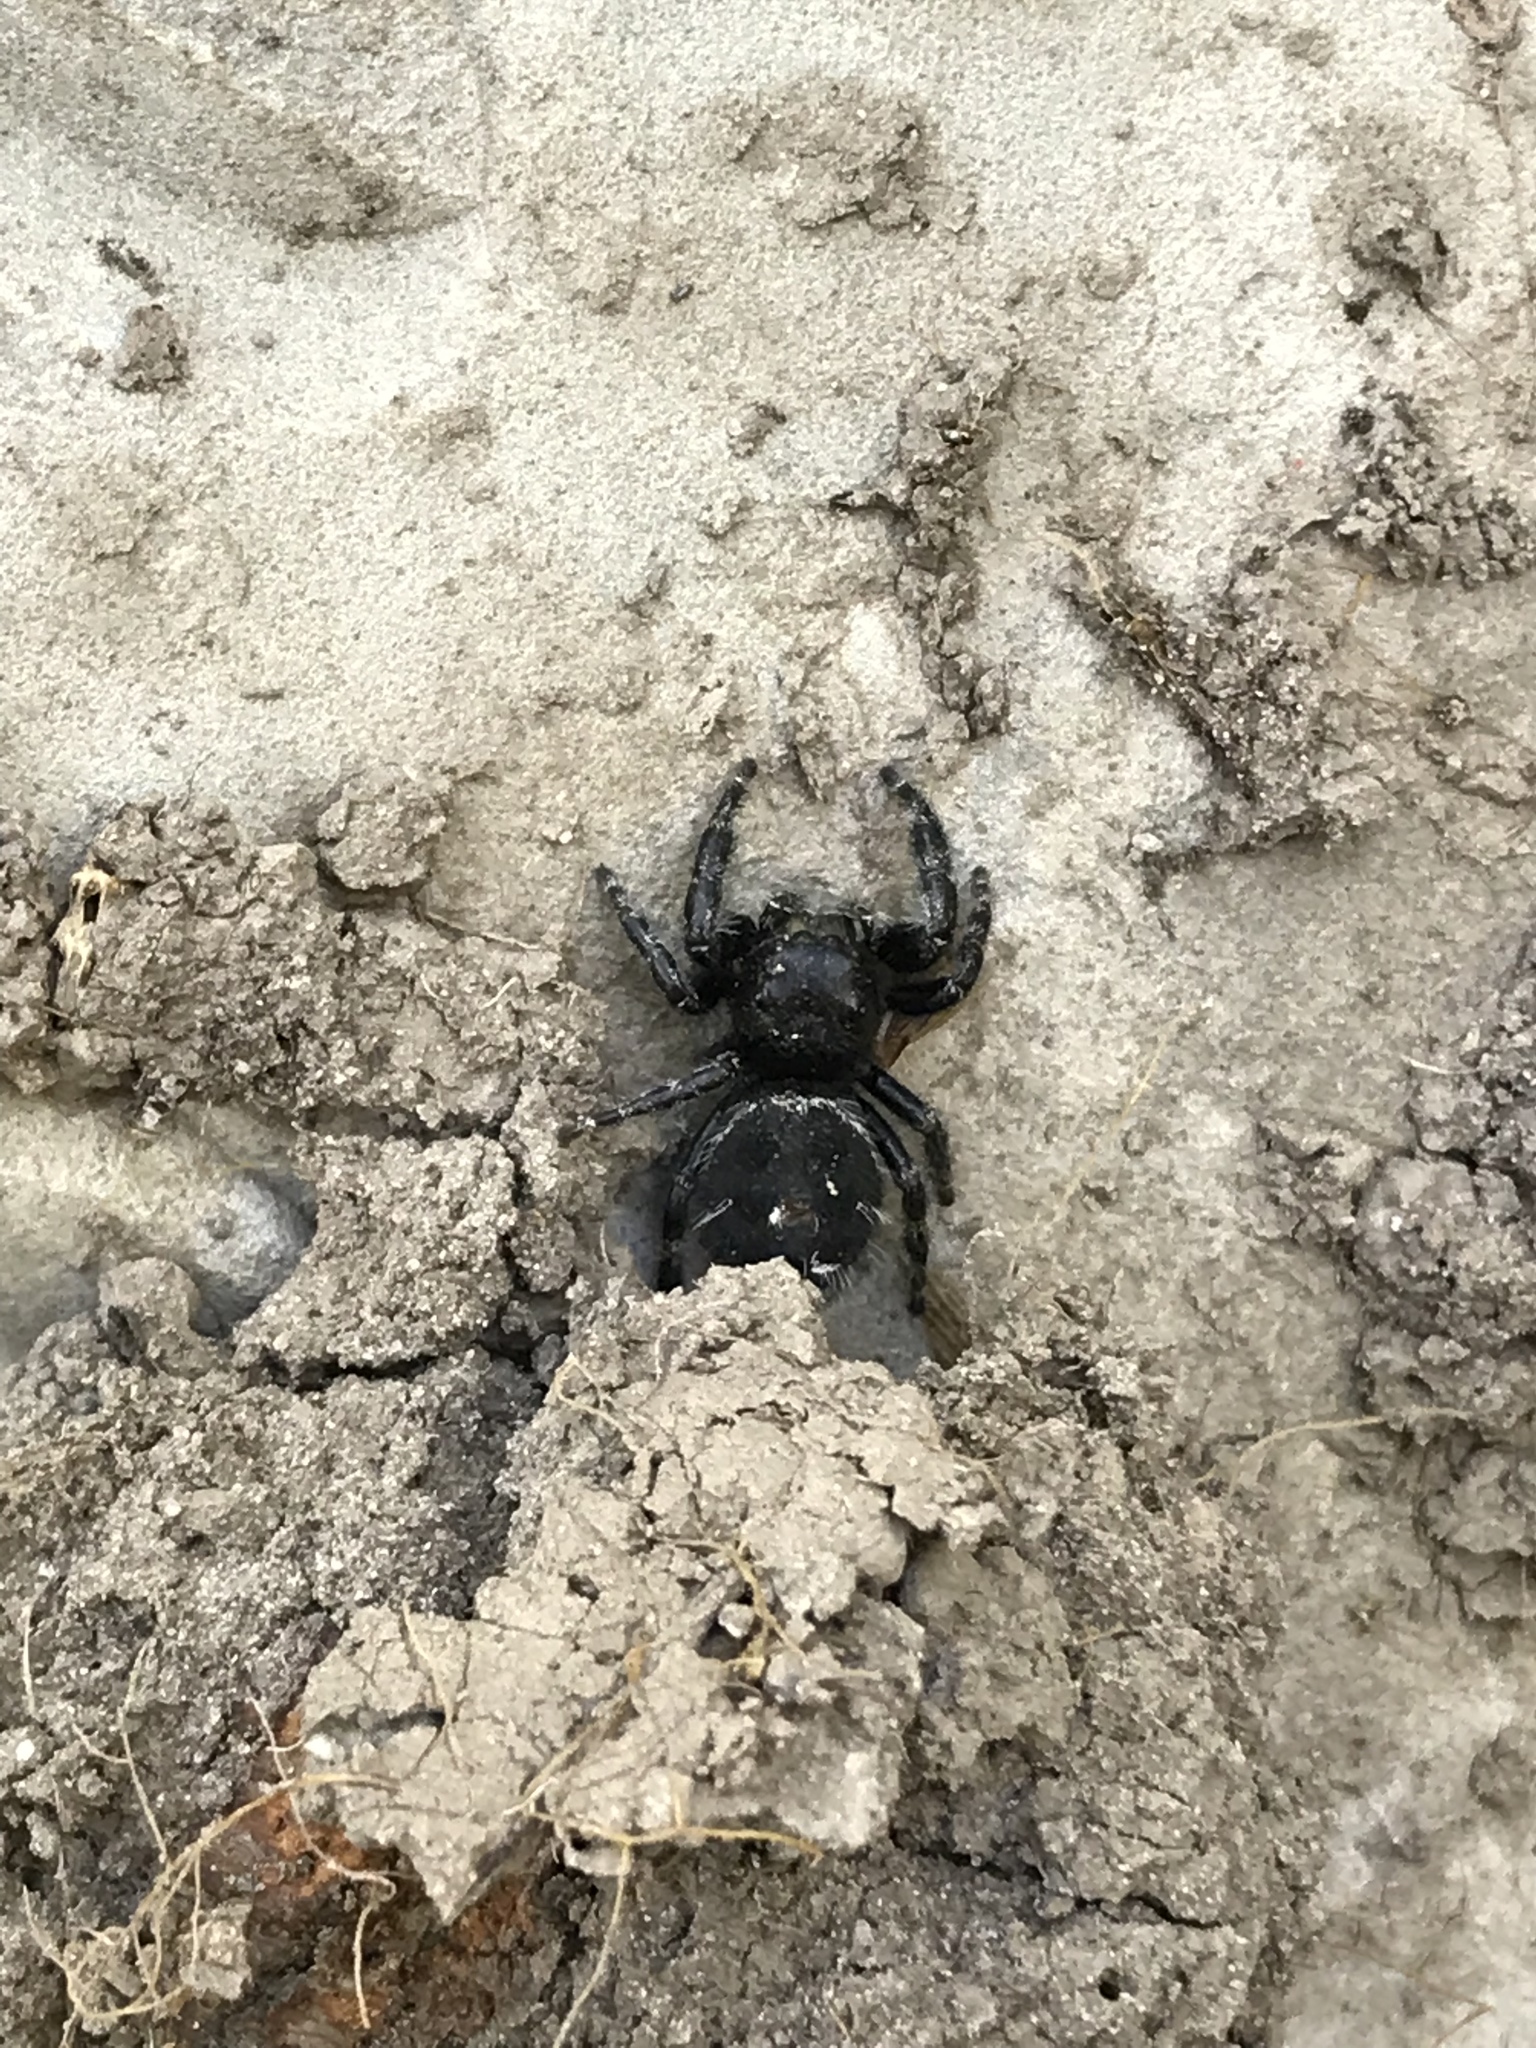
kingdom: Animalia
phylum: Arthropoda
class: Arachnida
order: Araneae
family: Salticidae
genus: Phidippus
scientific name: Phidippus audax
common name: Bold jumper
